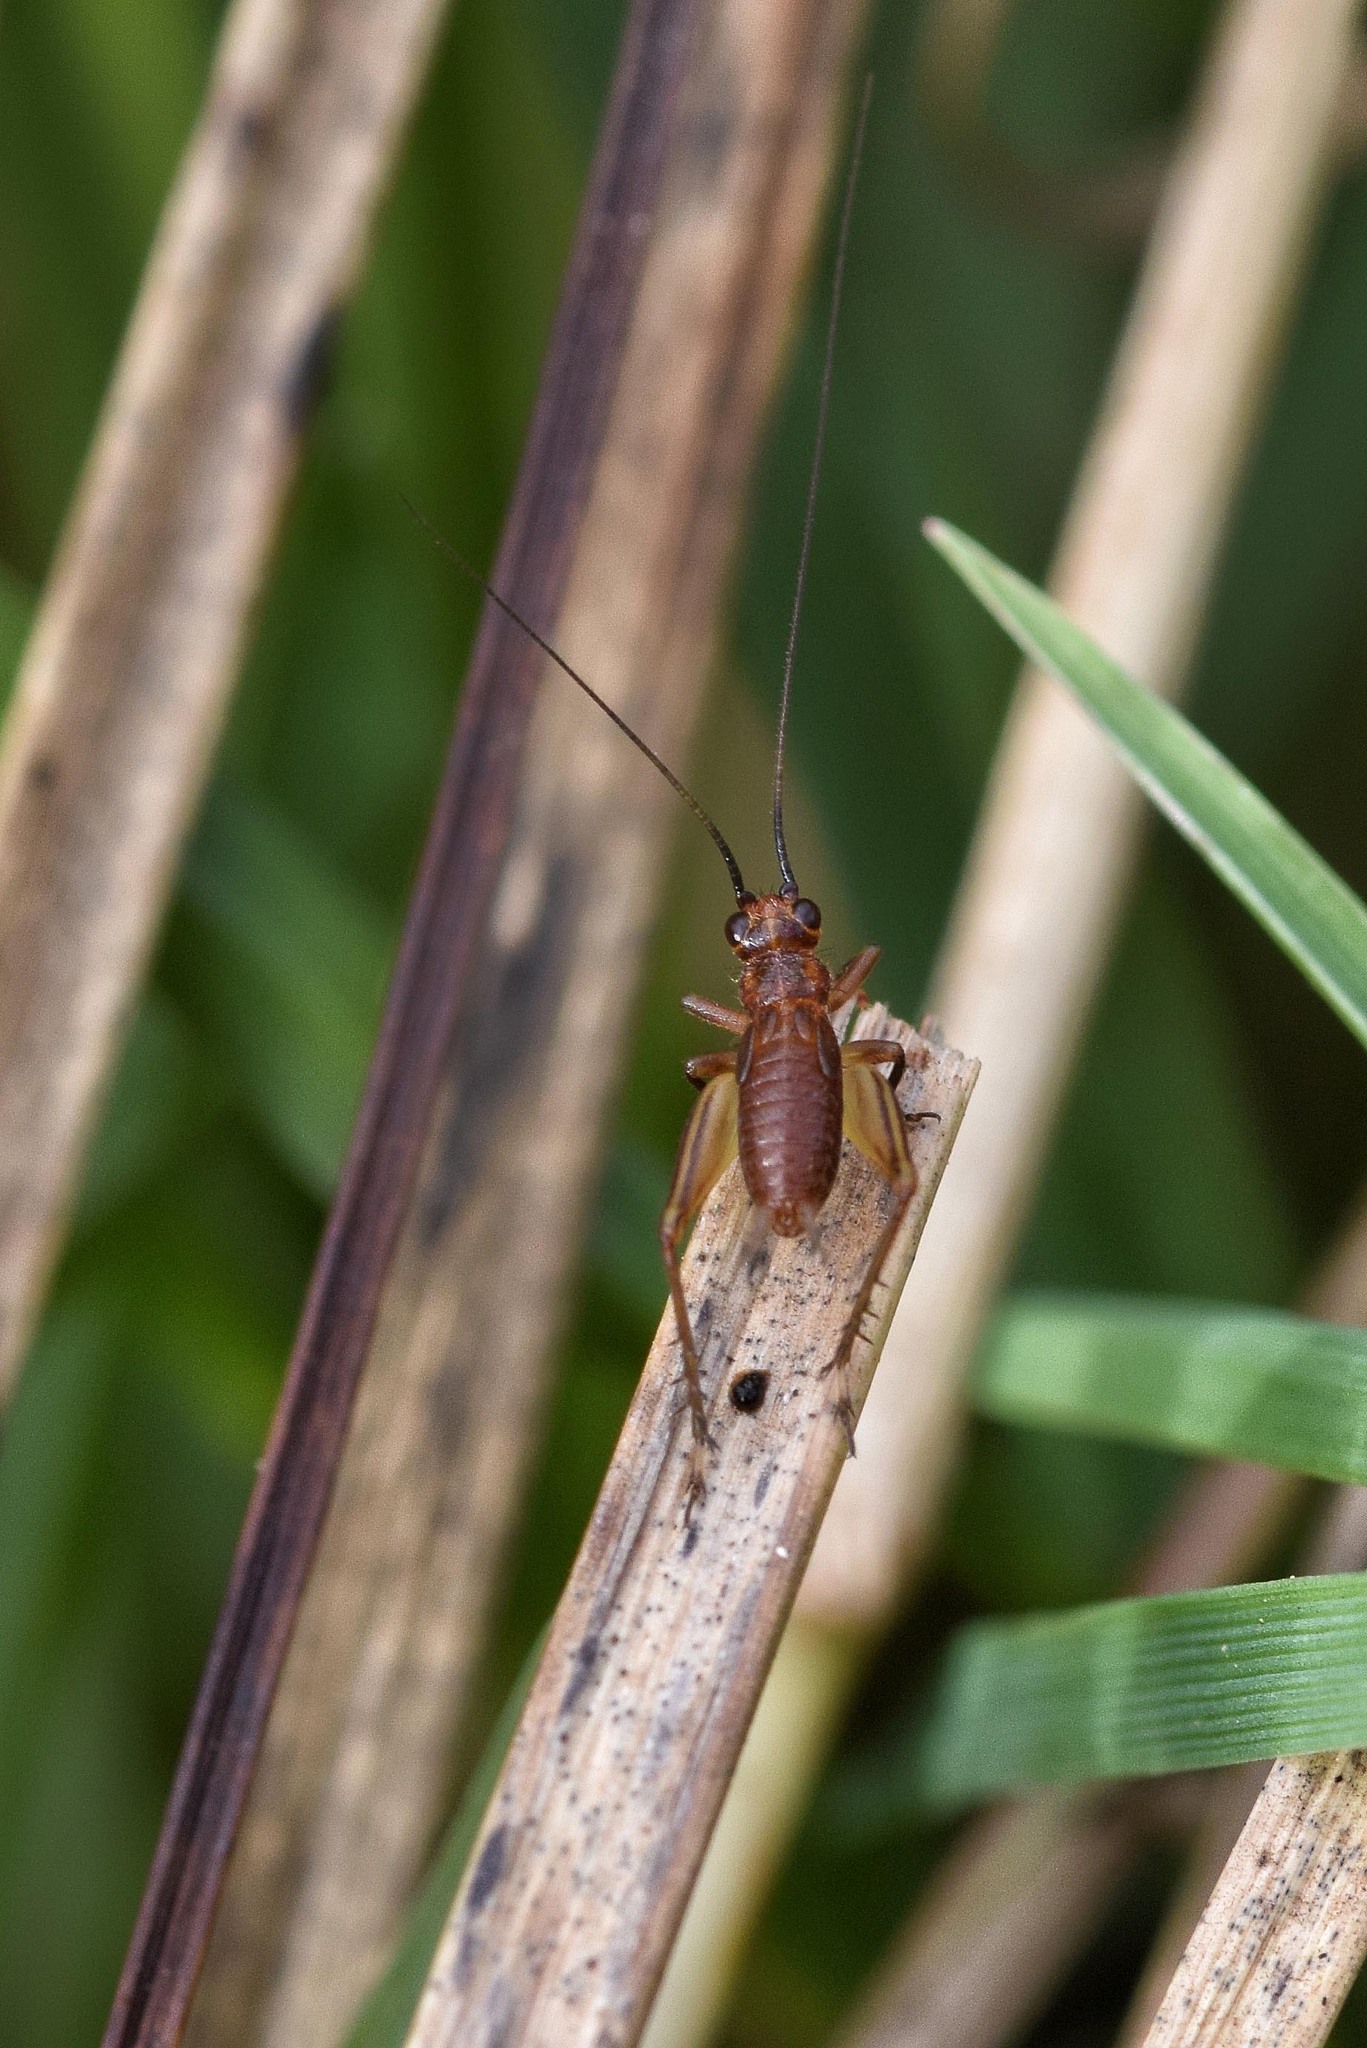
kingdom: Animalia
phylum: Arthropoda
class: Insecta
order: Orthoptera
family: Trigonidiidae
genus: Trigonidium
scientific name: Trigonidium cicindeloides
